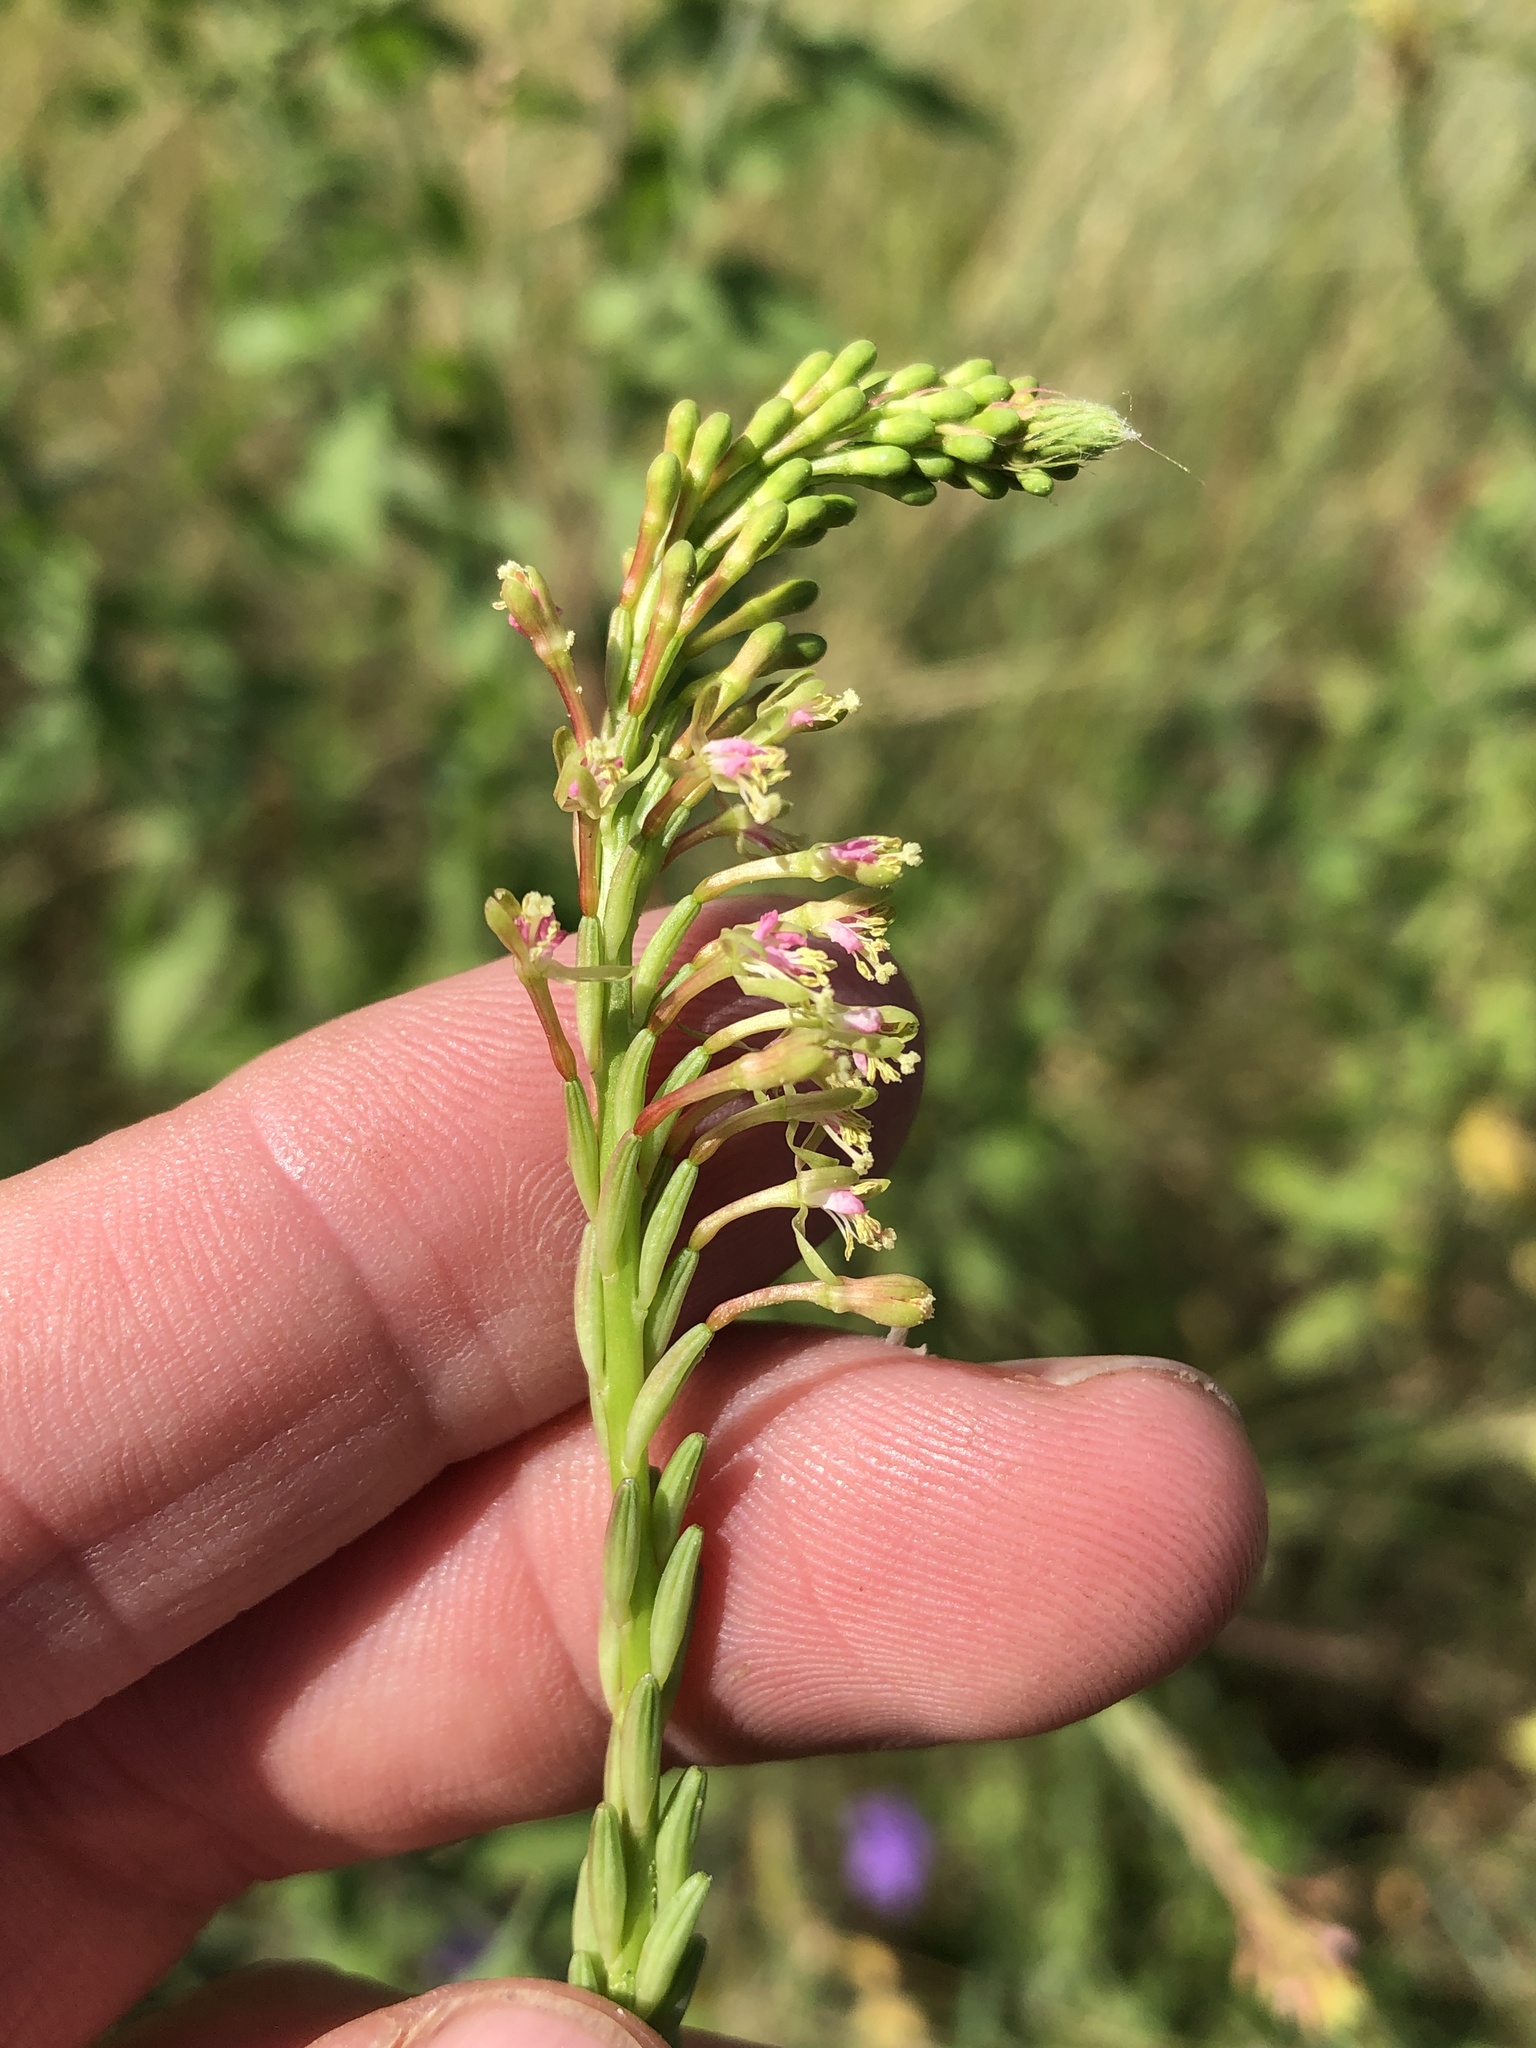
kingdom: Plantae
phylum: Tracheophyta
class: Magnoliopsida
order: Myrtales
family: Onagraceae
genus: Oenothera
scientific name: Oenothera curtiflora
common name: Velvetweed
